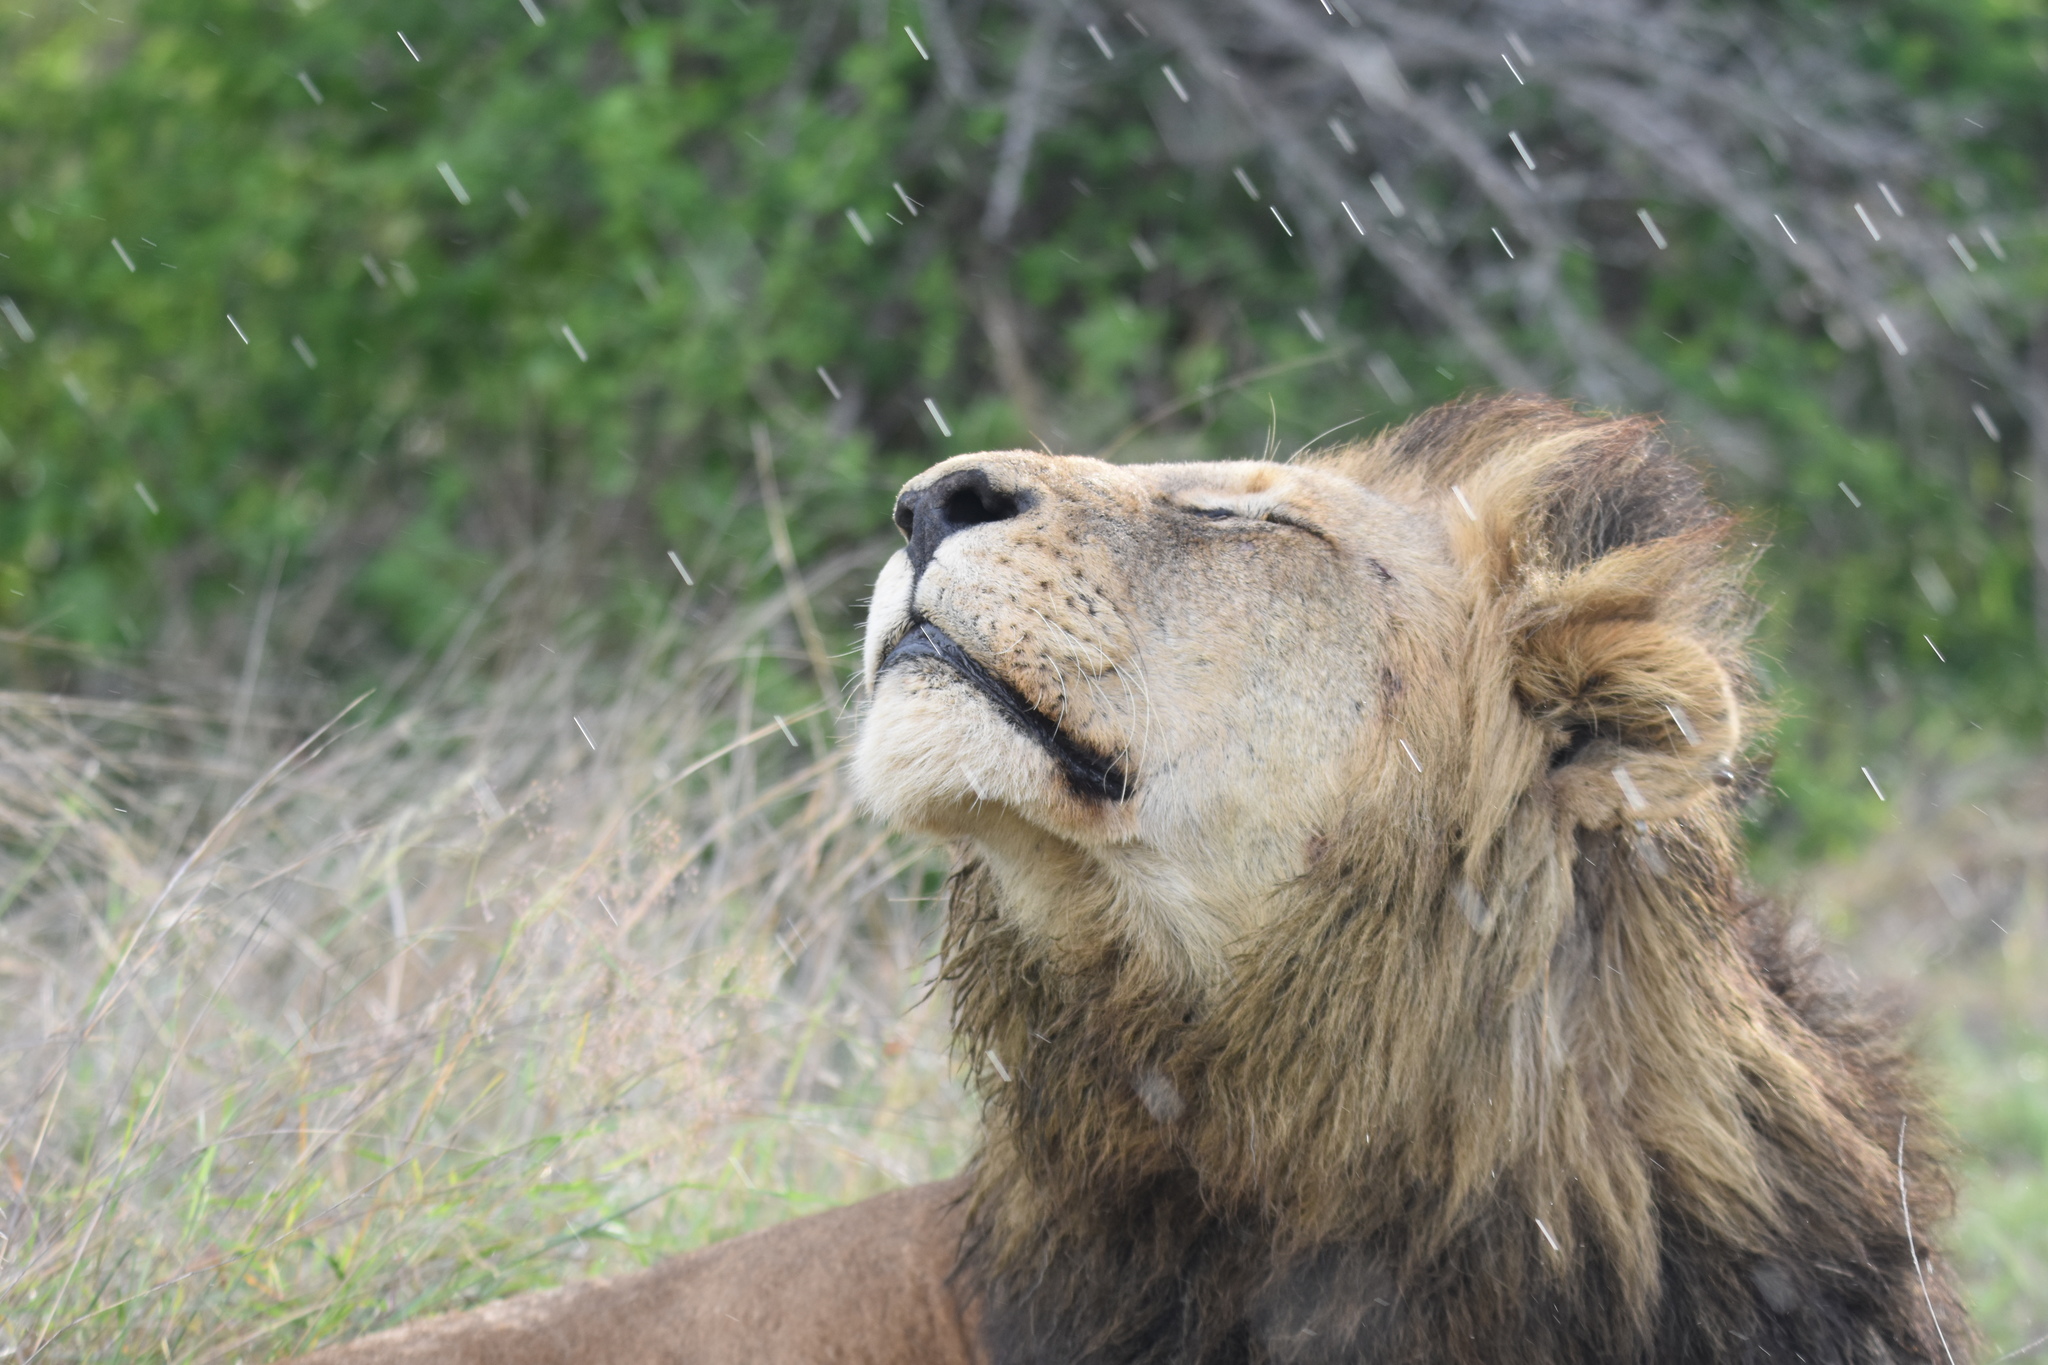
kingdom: Animalia
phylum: Chordata
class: Mammalia
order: Carnivora
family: Felidae
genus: Panthera
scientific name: Panthera leo
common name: Lion
